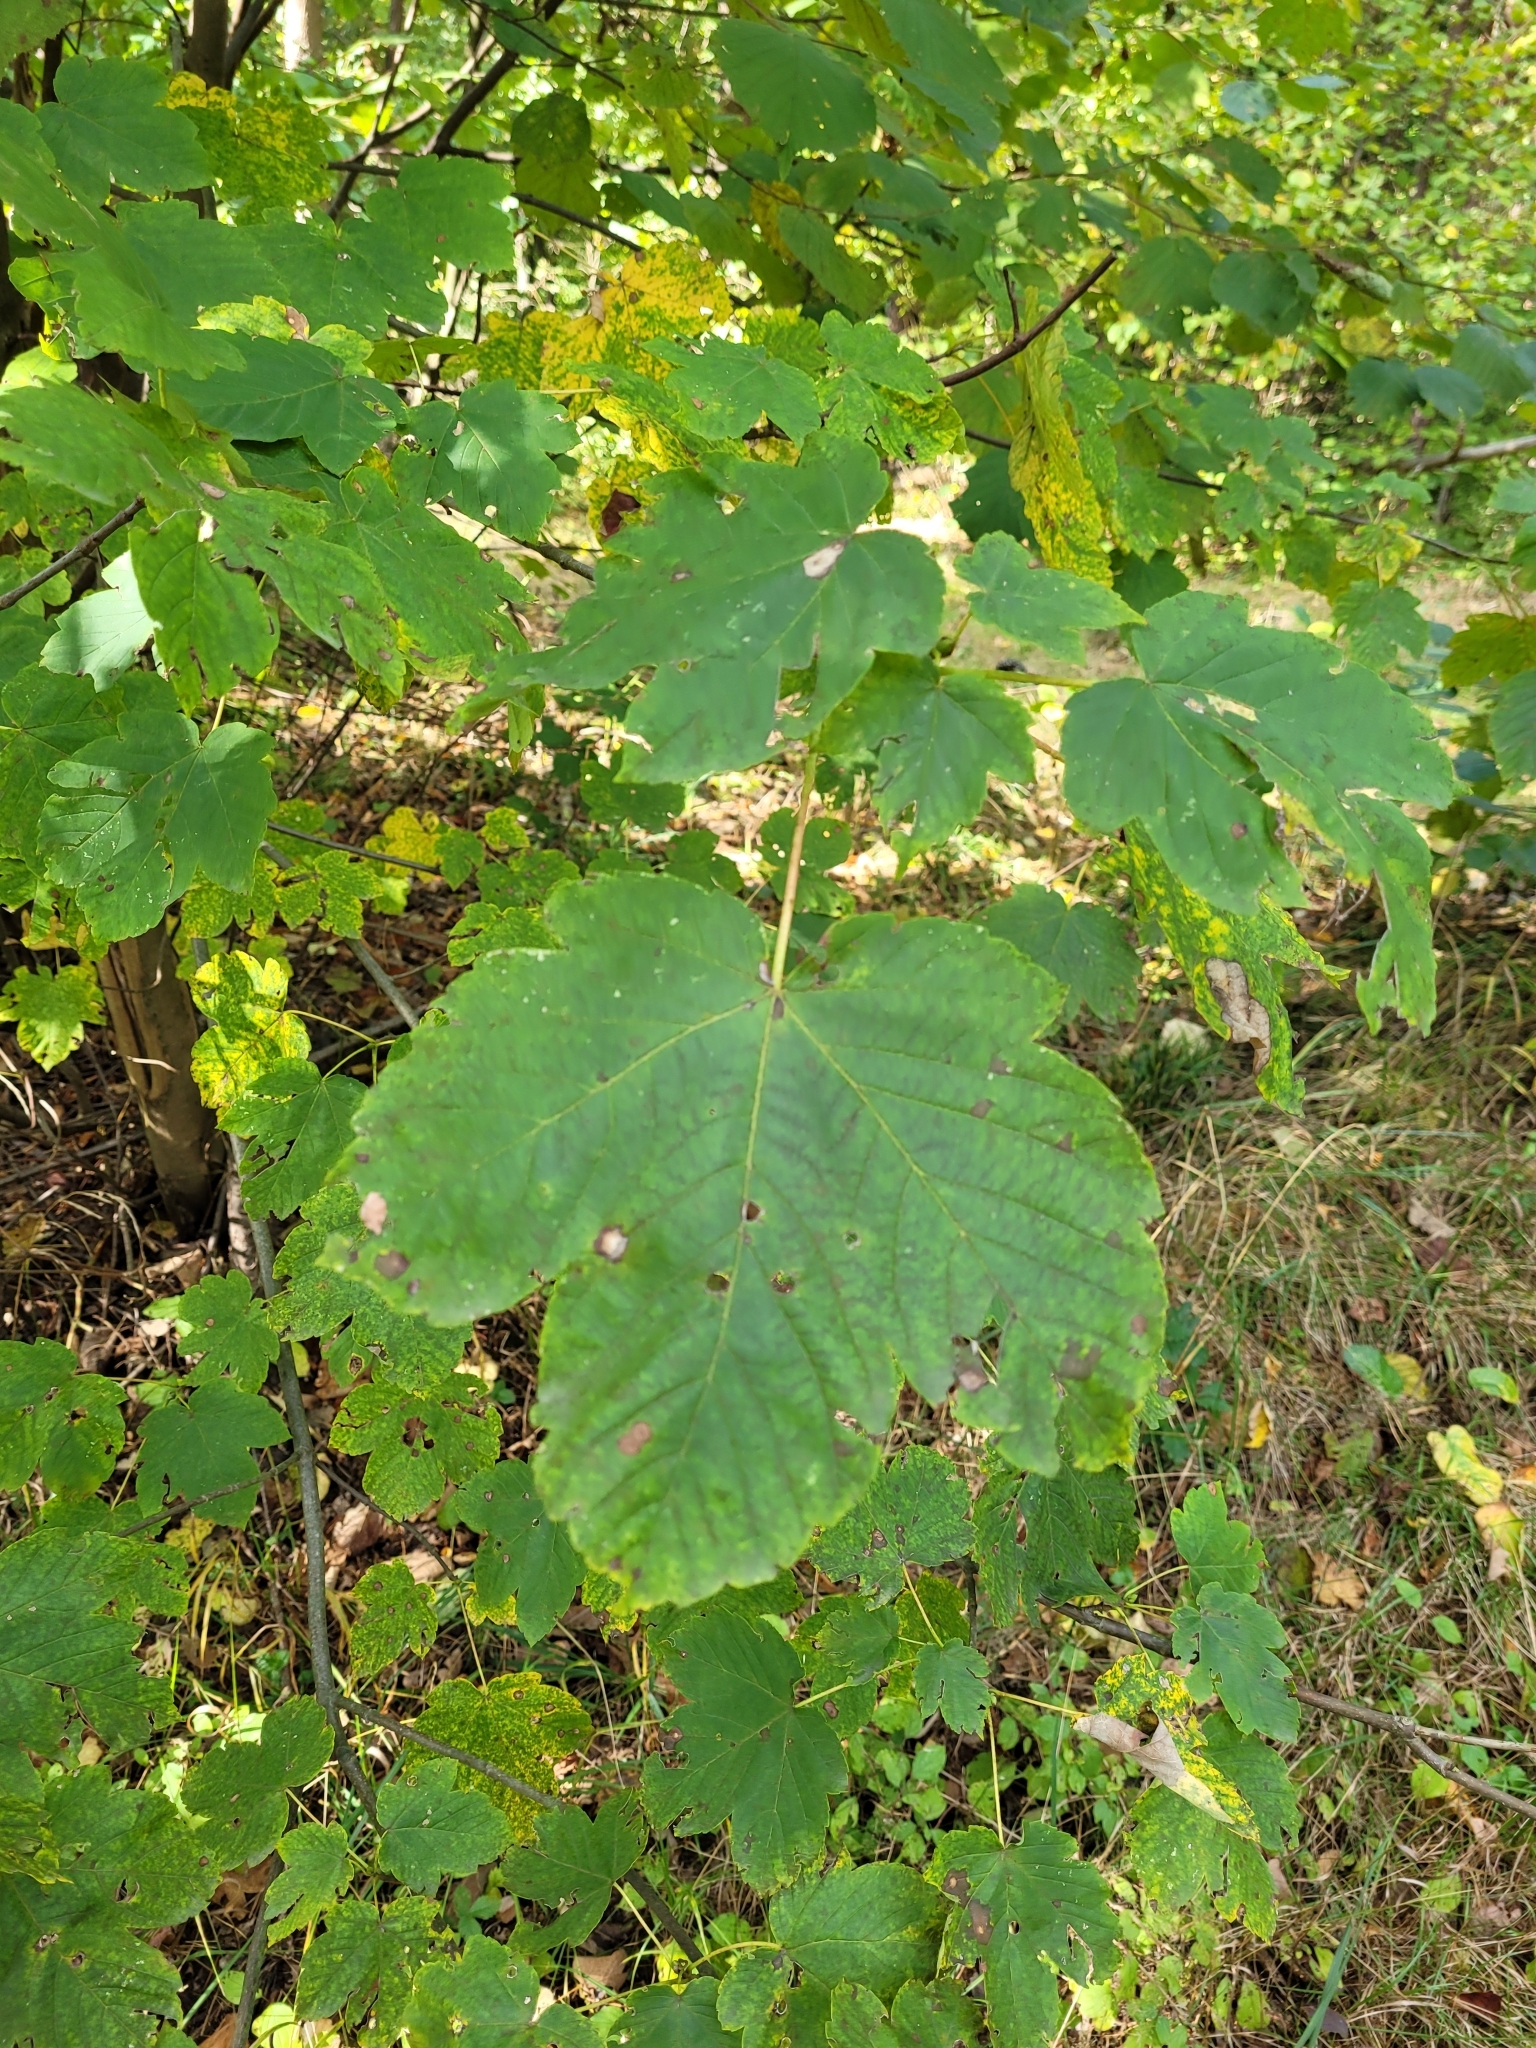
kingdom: Plantae
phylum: Tracheophyta
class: Magnoliopsida
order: Sapindales
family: Sapindaceae
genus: Acer
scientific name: Acer pseudoplatanus
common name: Sycamore
